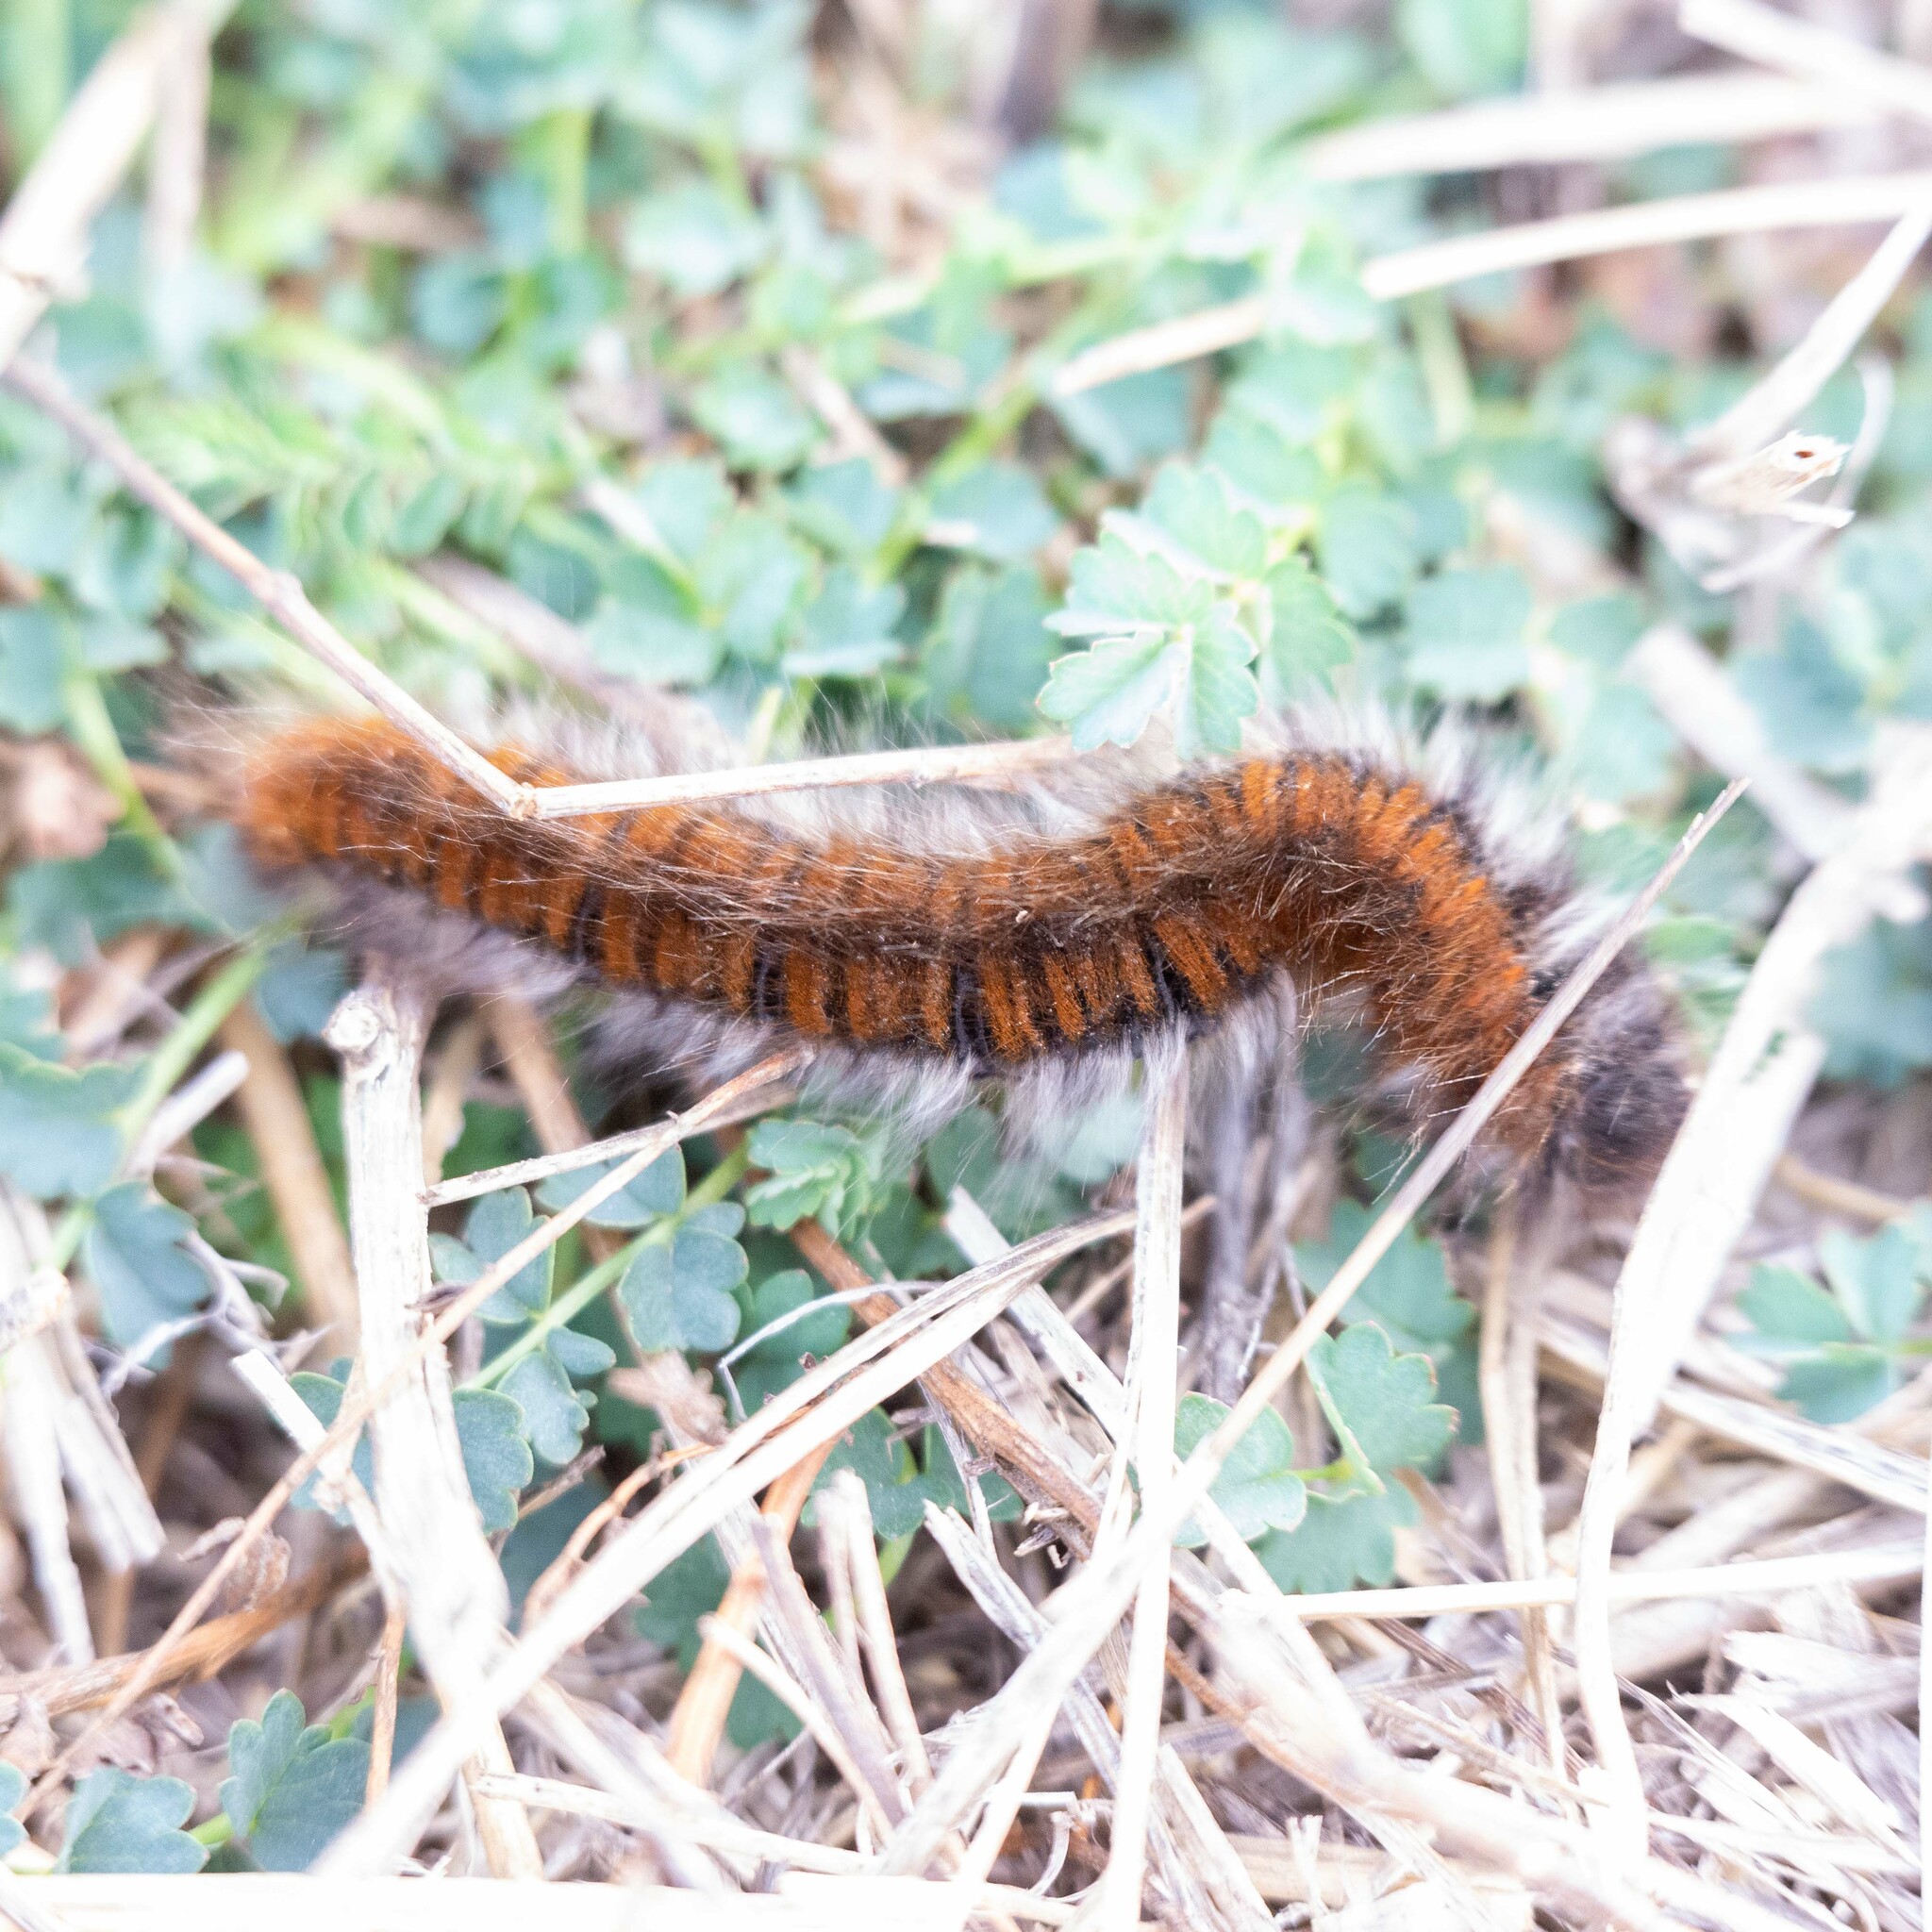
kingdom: Animalia
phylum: Arthropoda
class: Insecta
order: Lepidoptera
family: Lasiocampidae
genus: Macrothylacia
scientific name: Macrothylacia rubi
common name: Fox moth
